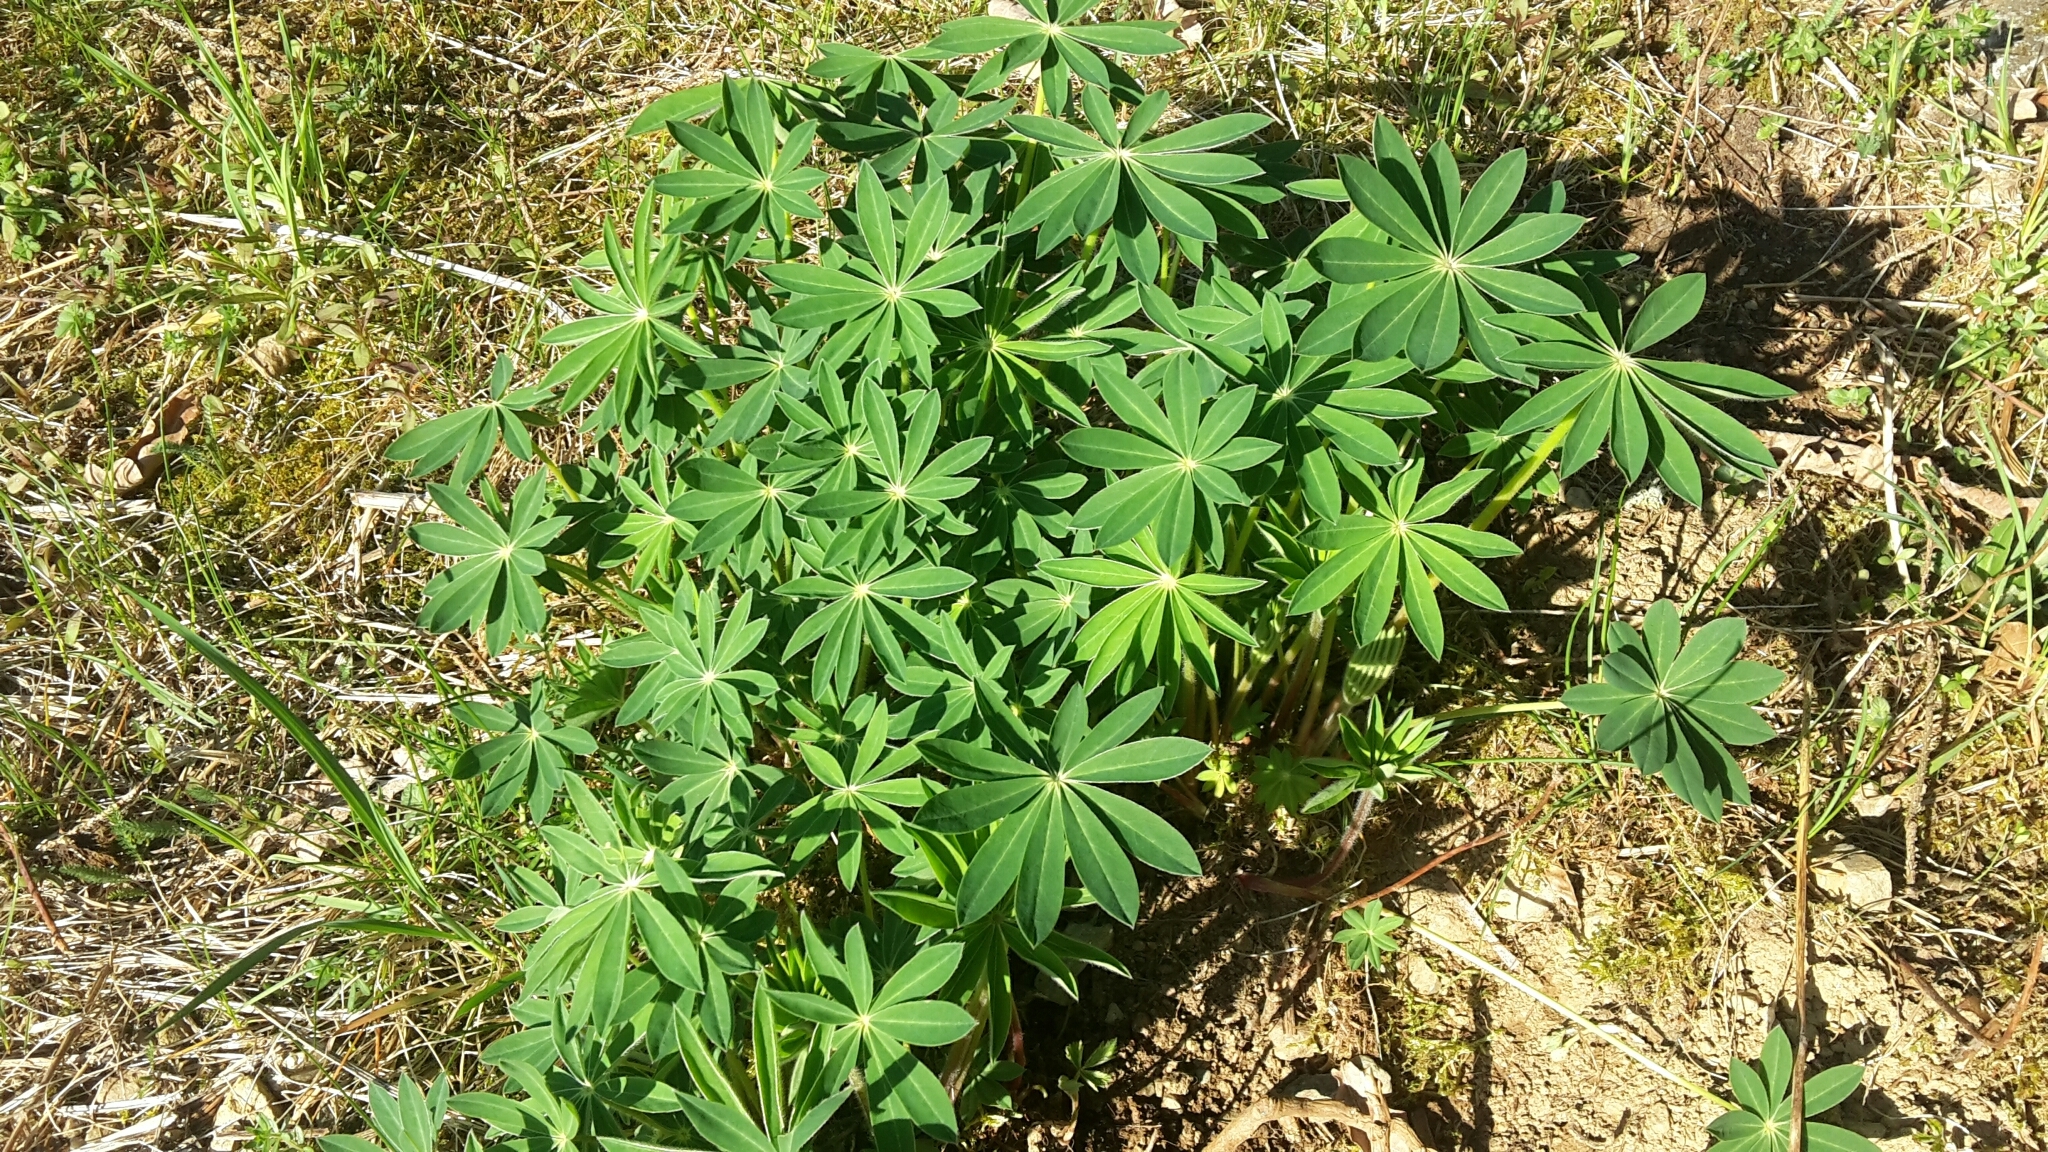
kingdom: Plantae
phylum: Tracheophyta
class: Magnoliopsida
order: Fabales
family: Fabaceae
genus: Lupinus
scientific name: Lupinus polyphyllus
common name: Garden lupin
